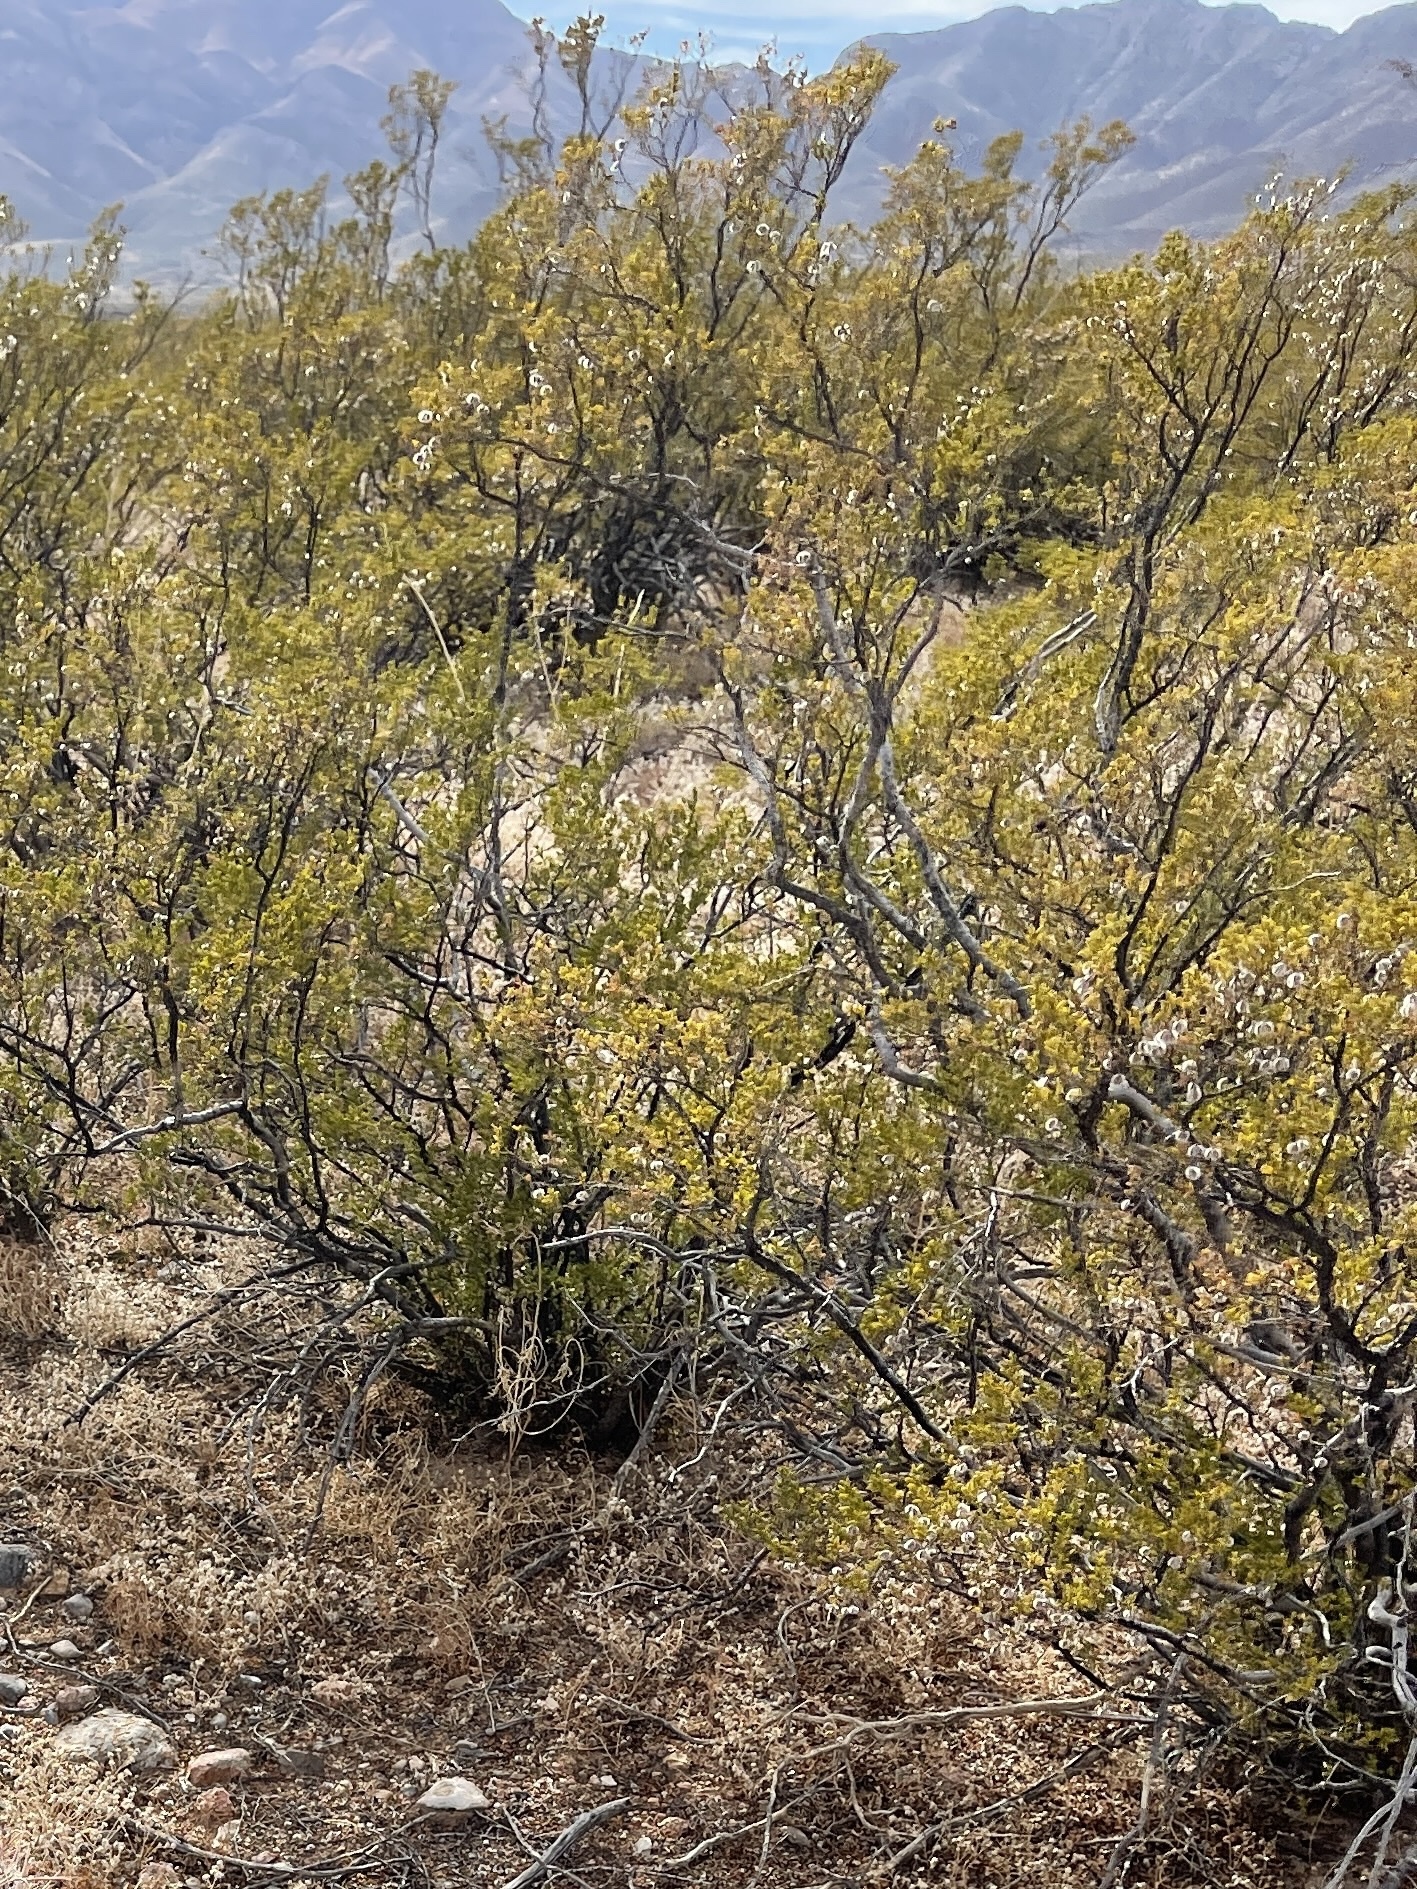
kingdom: Plantae
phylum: Tracheophyta
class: Magnoliopsida
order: Zygophyllales
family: Zygophyllaceae
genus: Larrea
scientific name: Larrea tridentata
